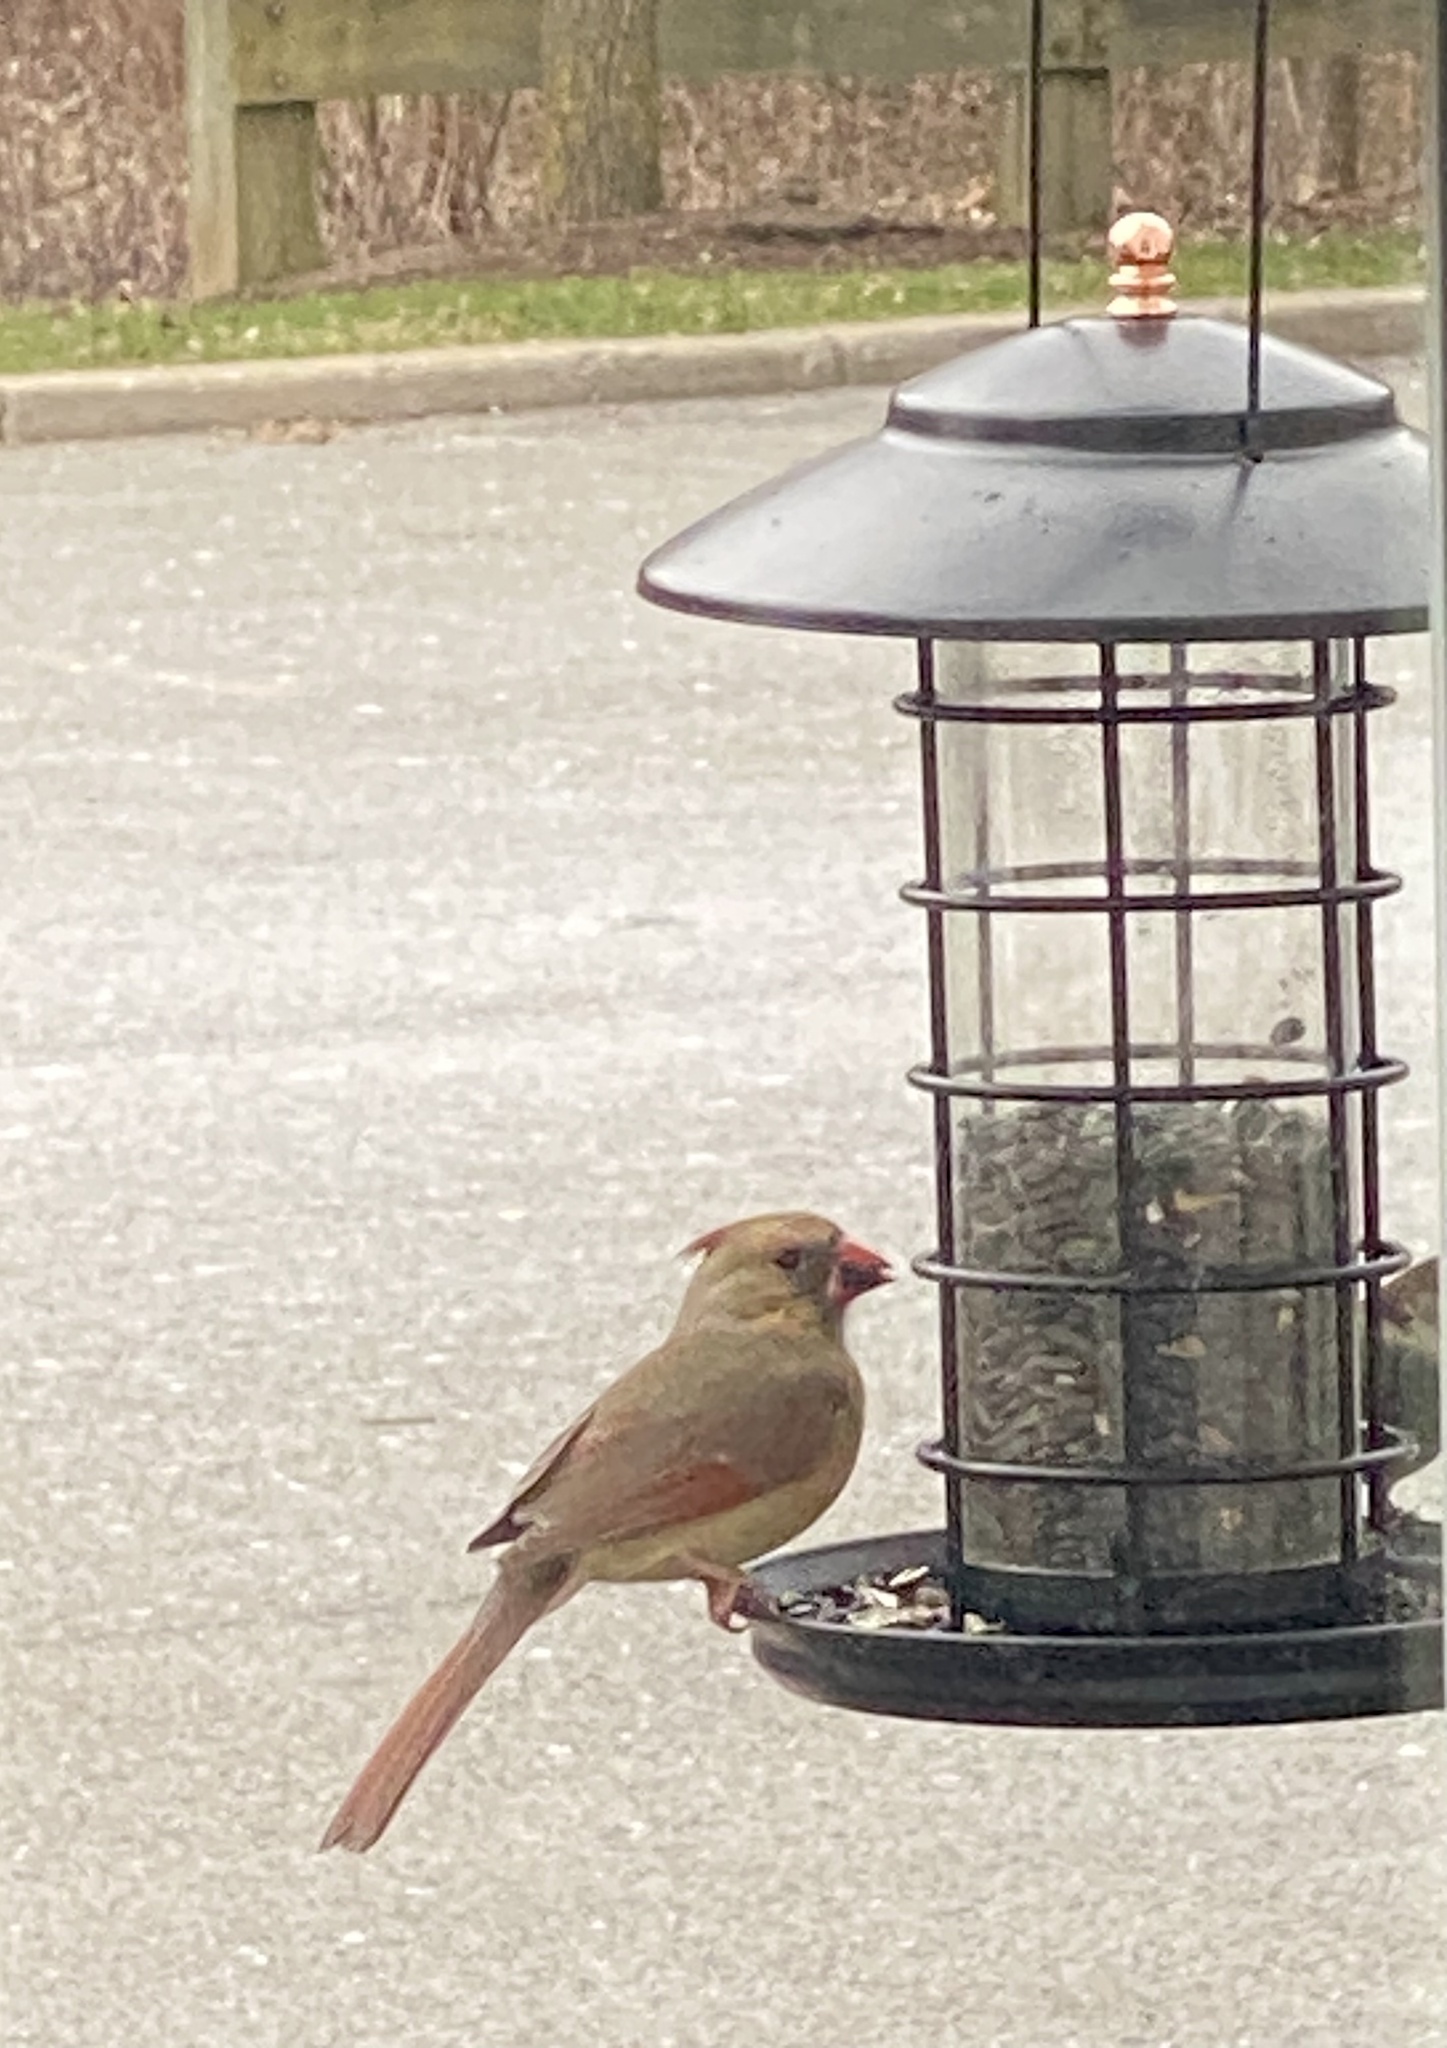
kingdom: Animalia
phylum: Chordata
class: Aves
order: Passeriformes
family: Cardinalidae
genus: Cardinalis
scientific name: Cardinalis cardinalis
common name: Northern cardinal
